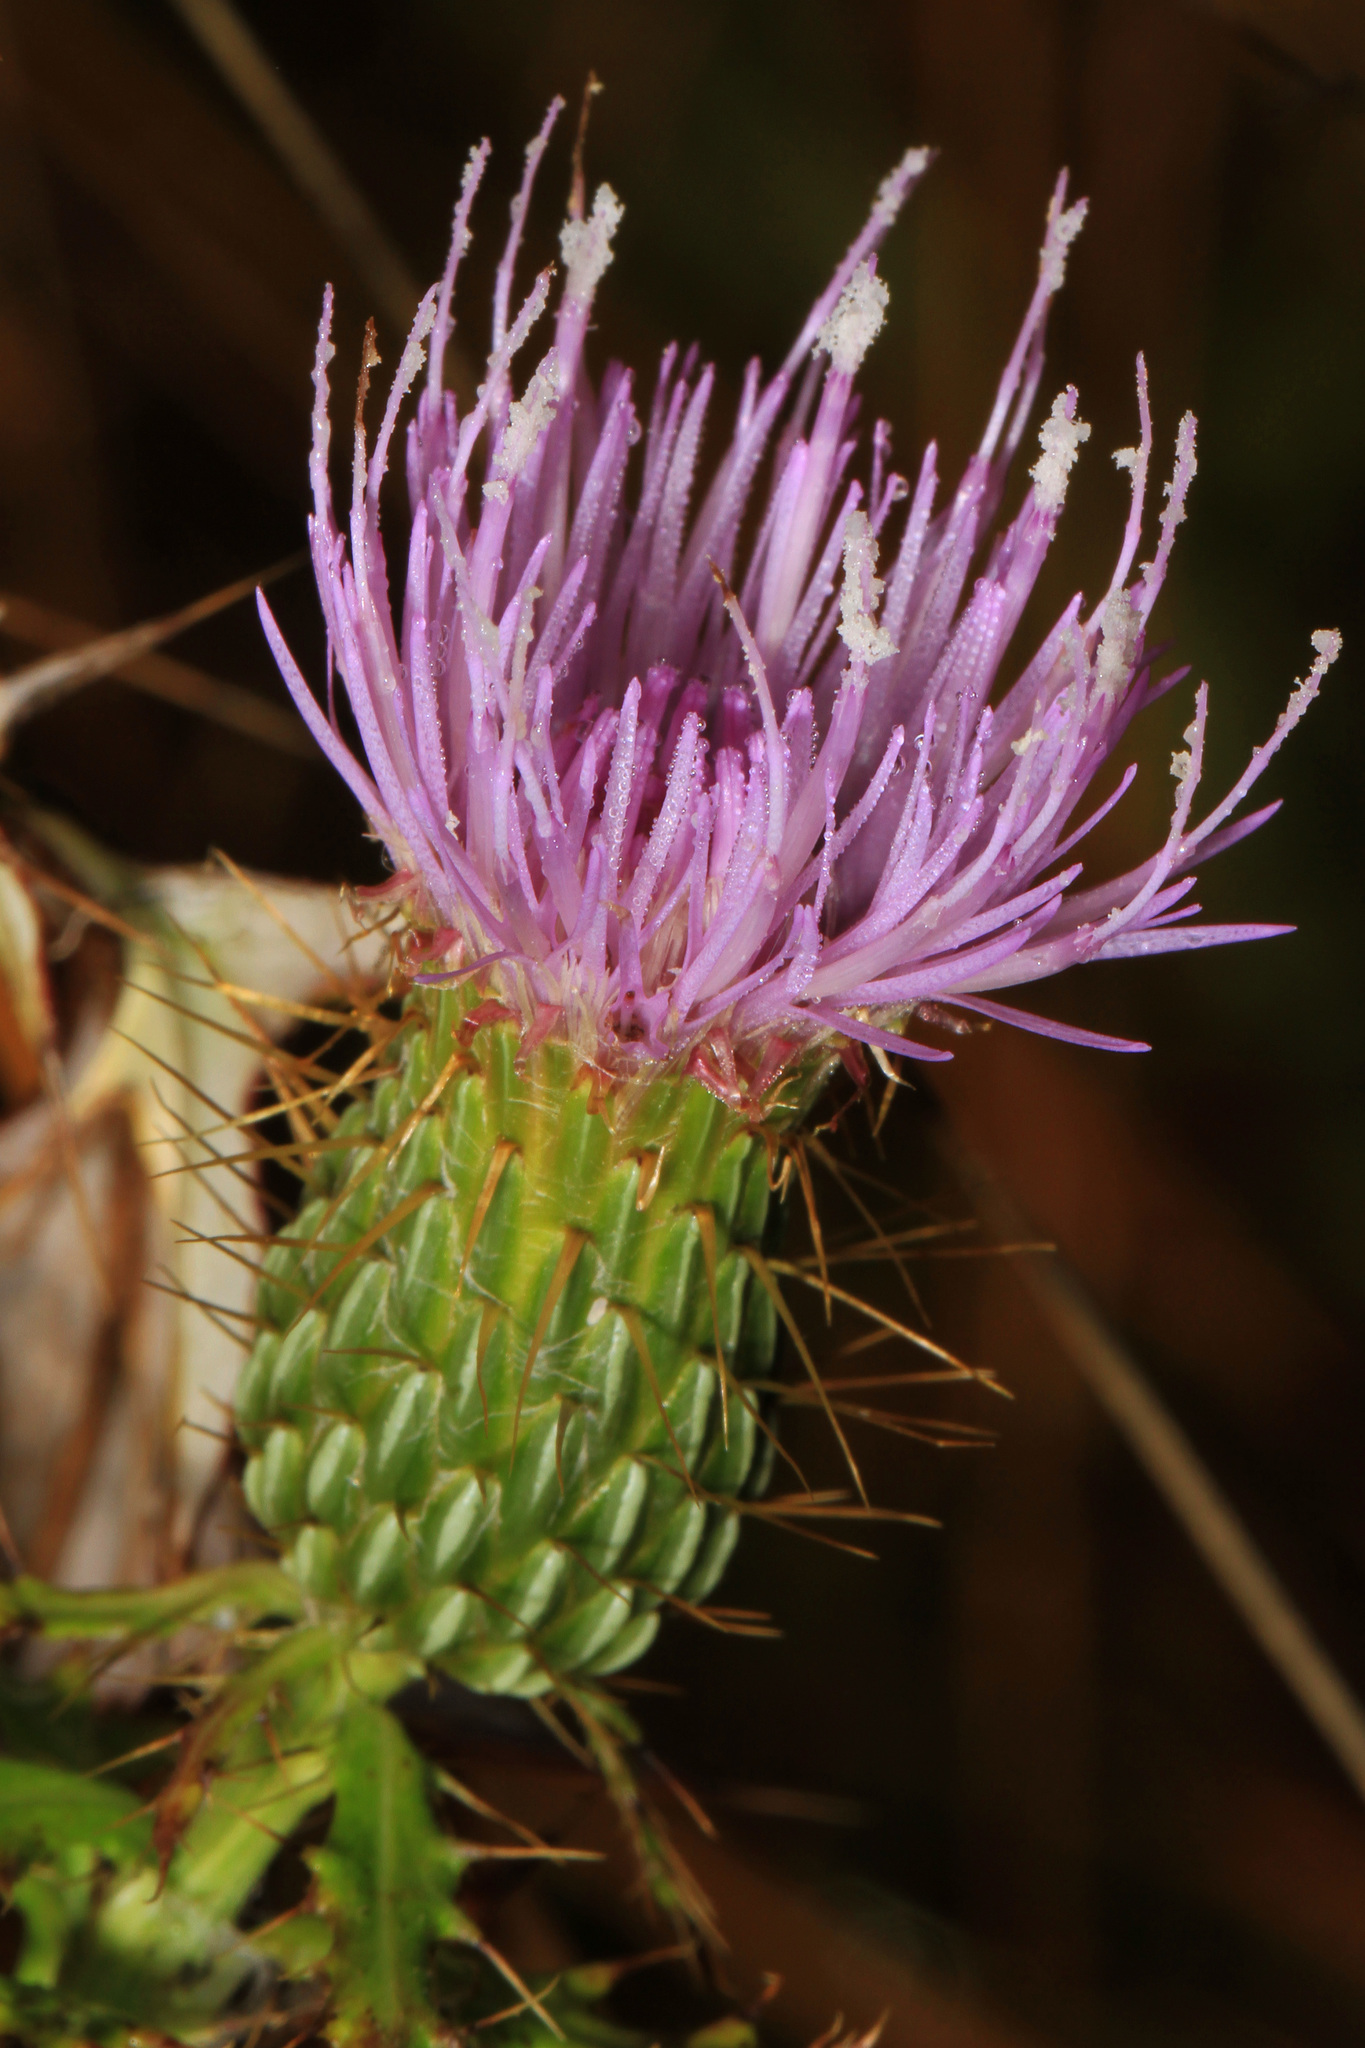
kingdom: Plantae
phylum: Tracheophyta
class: Magnoliopsida
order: Asterales
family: Asteraceae
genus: Cirsium
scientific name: Cirsium discolor
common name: Field thistle
